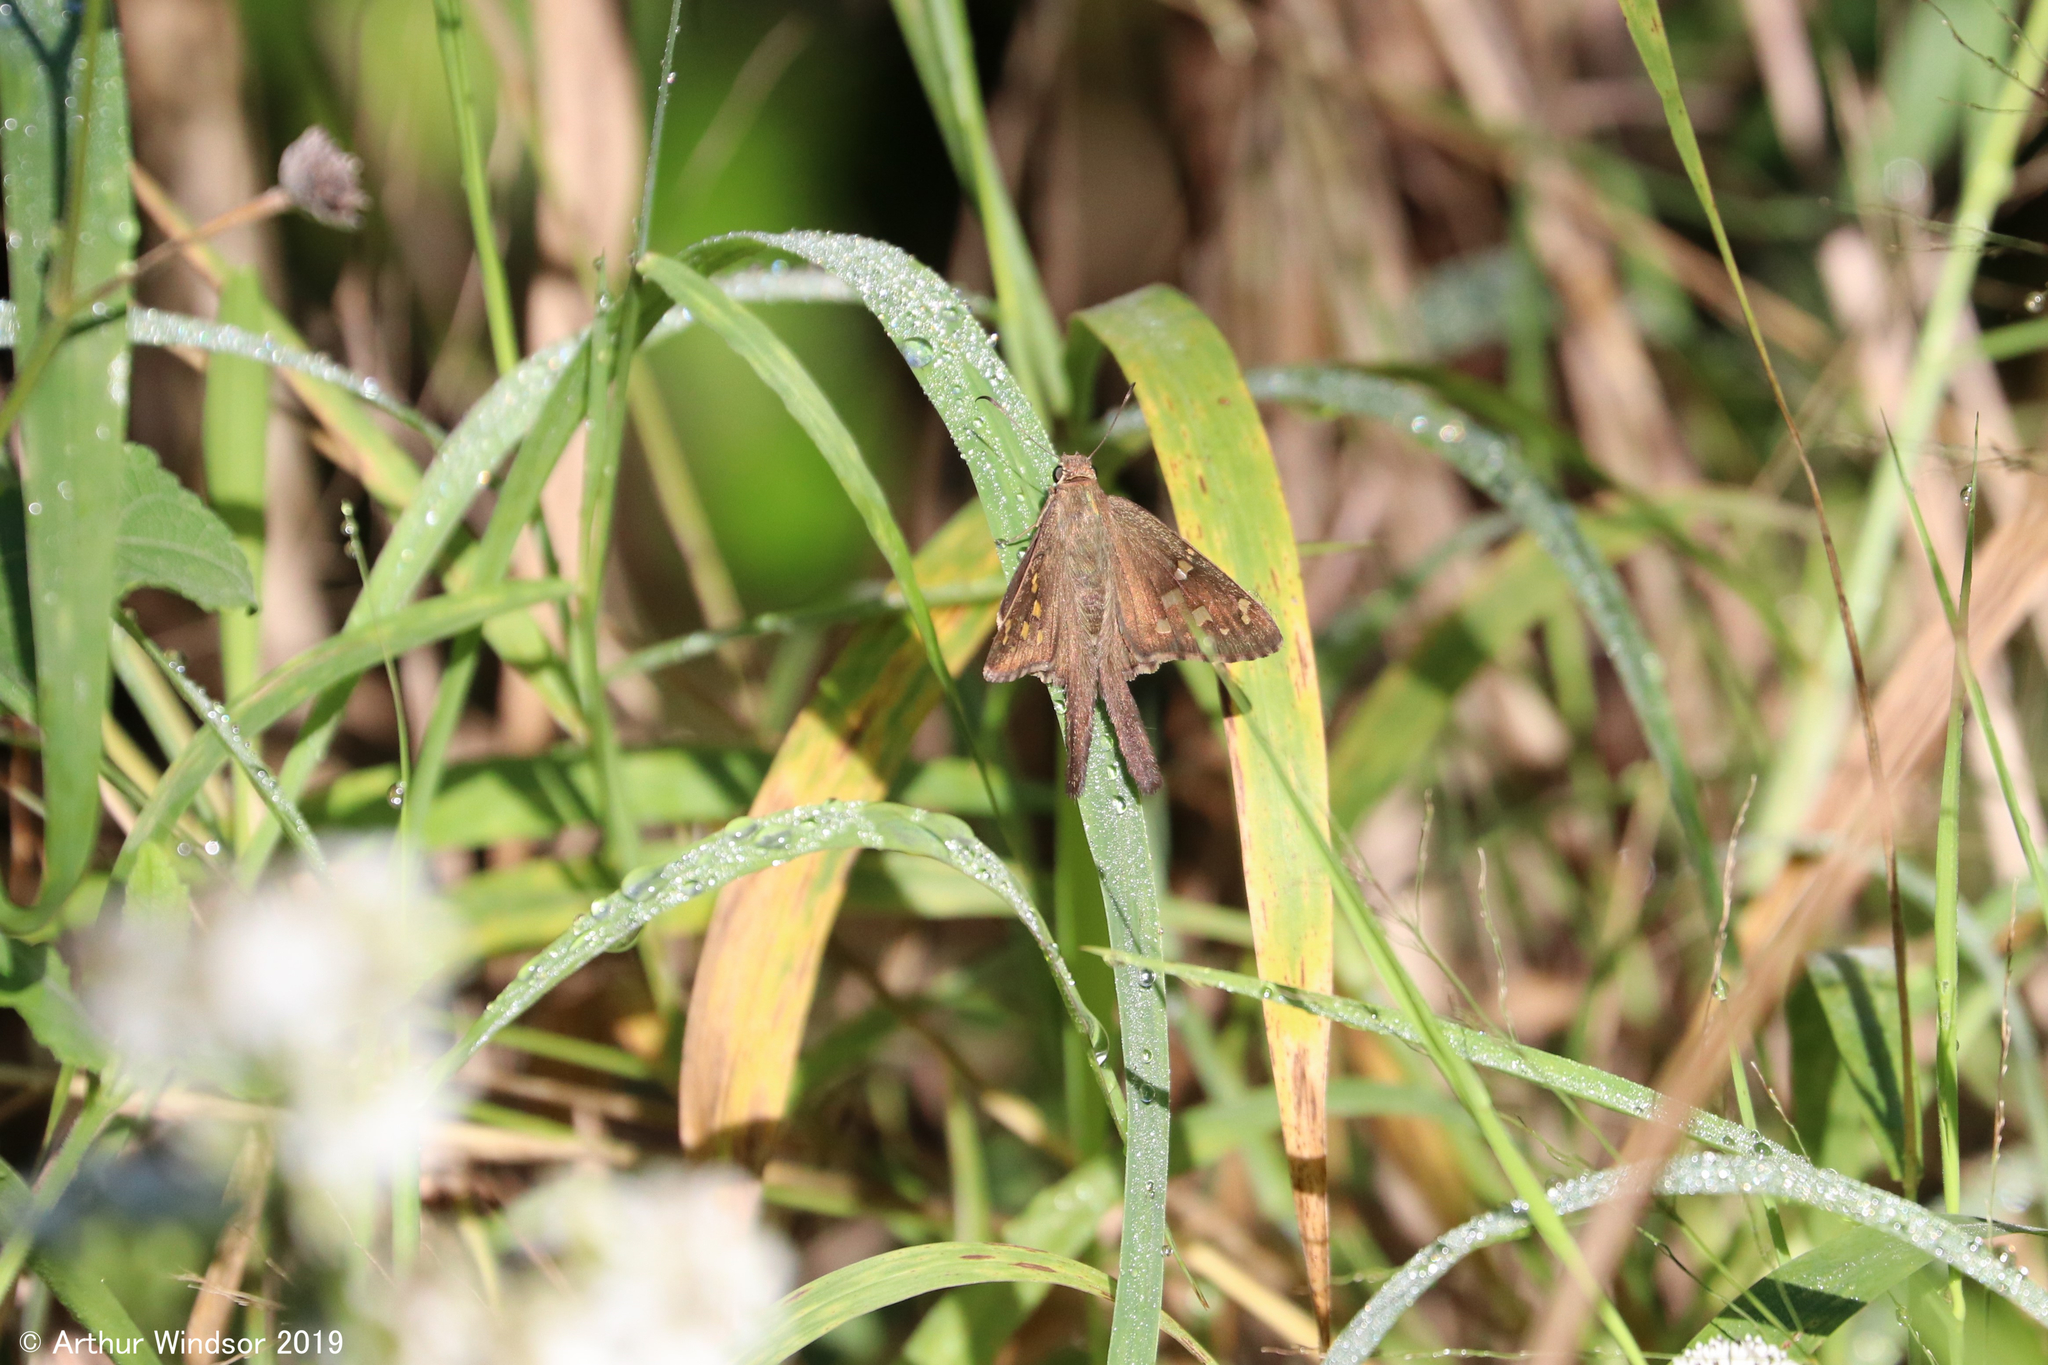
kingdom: Animalia
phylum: Arthropoda
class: Insecta
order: Lepidoptera
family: Hesperiidae
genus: Thorybes
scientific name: Thorybes
